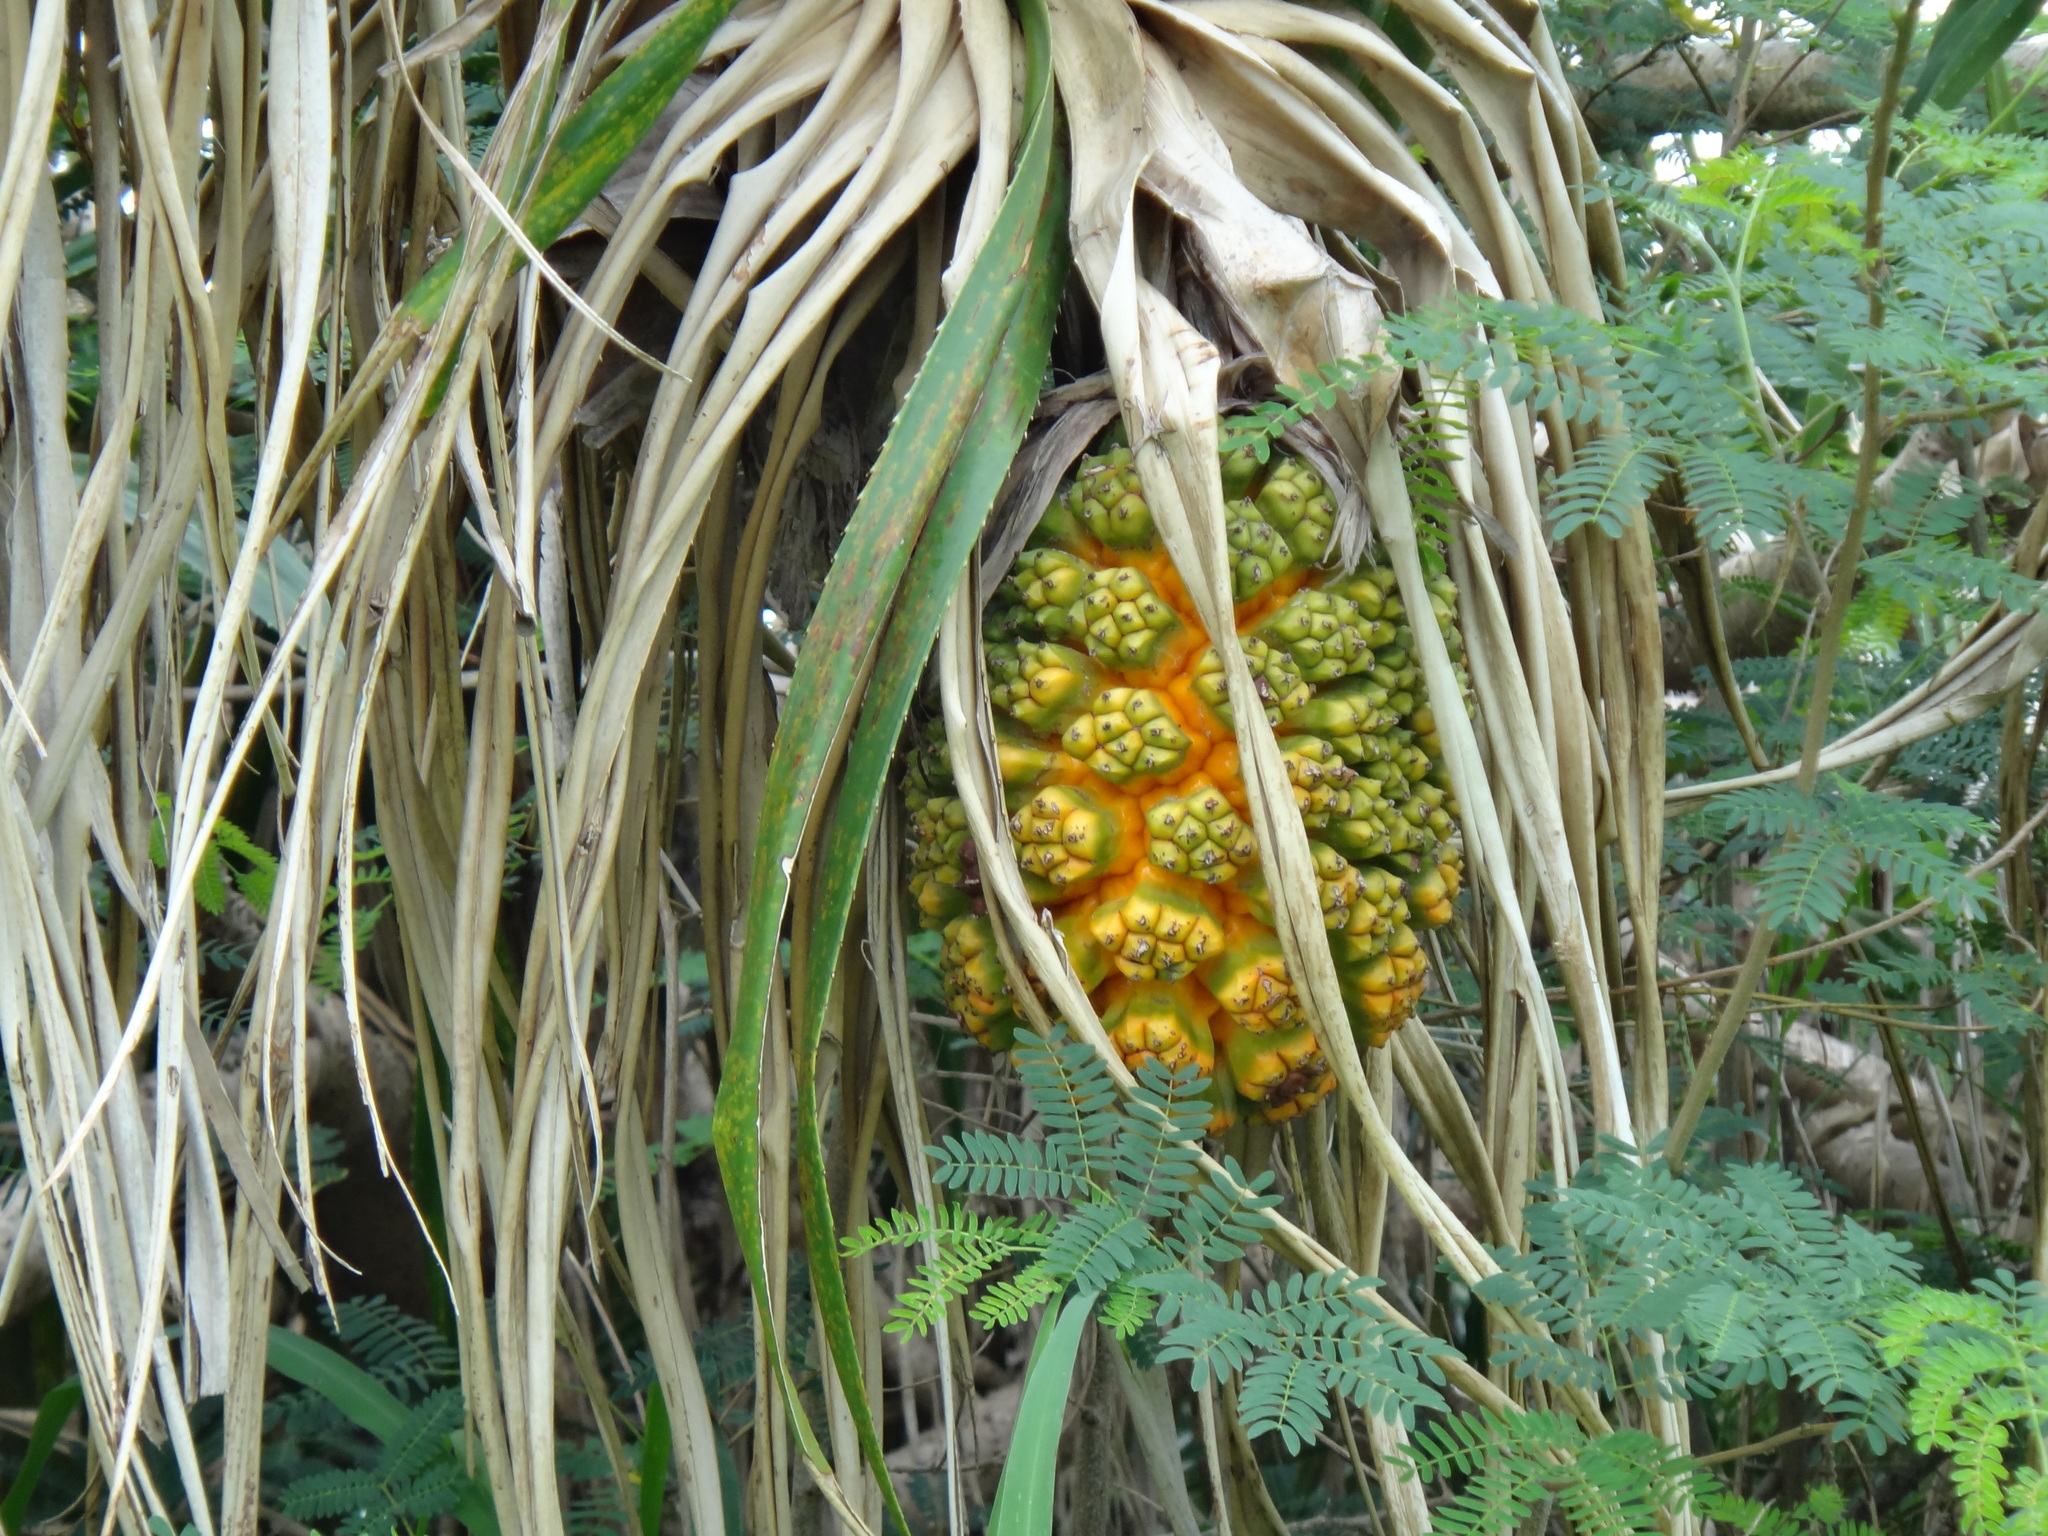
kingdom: Plantae
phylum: Tracheophyta
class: Liliopsida
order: Pandanales
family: Pandanaceae
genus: Pandanus
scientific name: Pandanus odorifer
